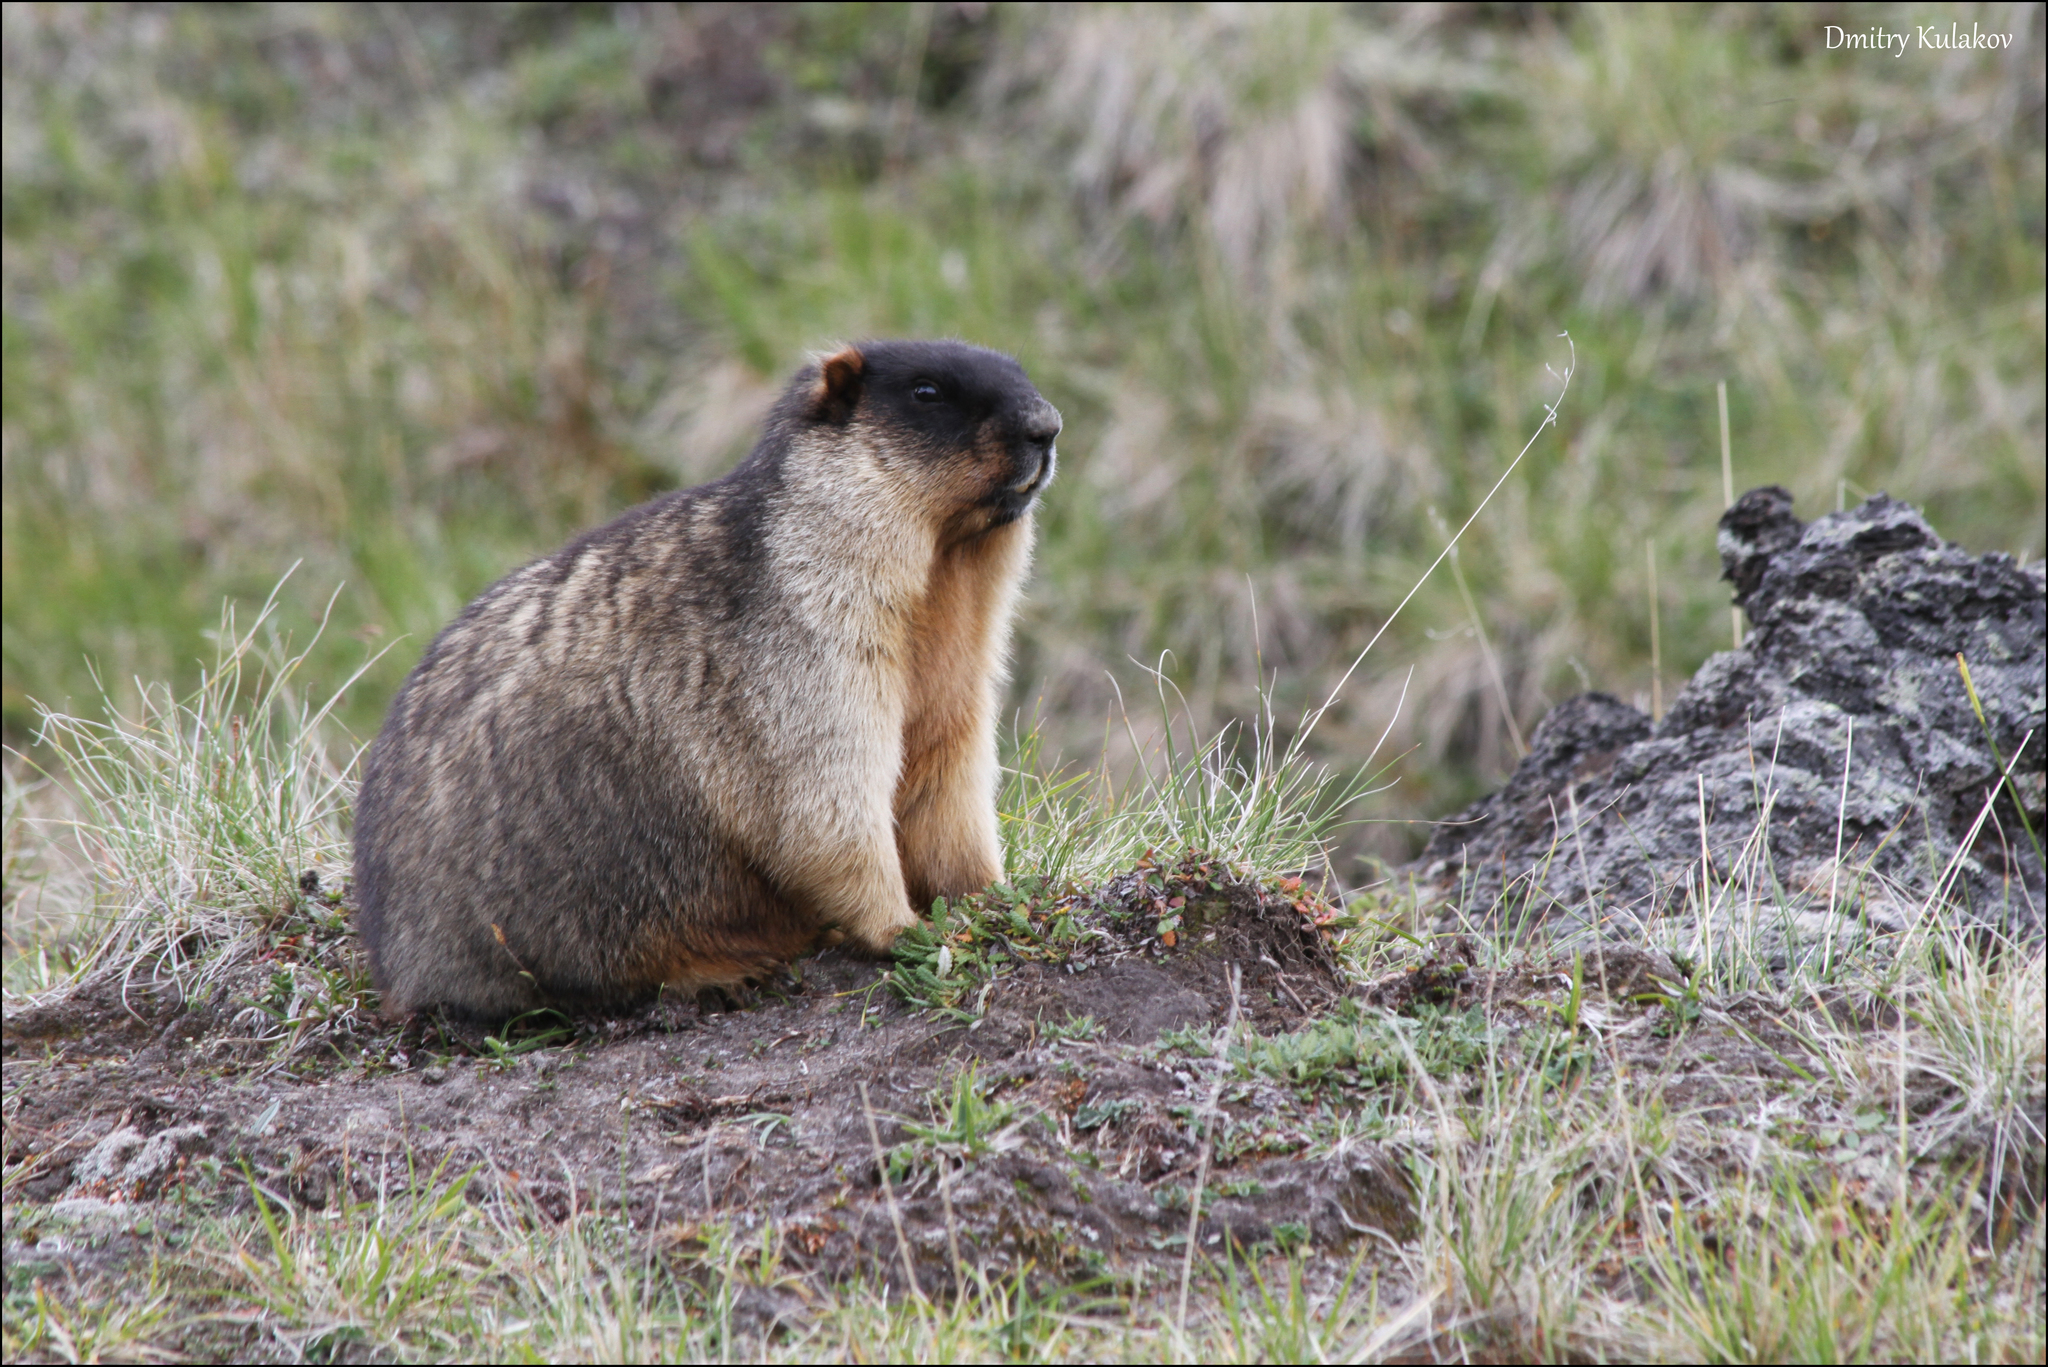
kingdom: Animalia
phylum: Chordata
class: Mammalia
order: Rodentia
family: Sciuridae
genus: Marmota
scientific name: Marmota camtschatica
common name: Black-capped marmot
